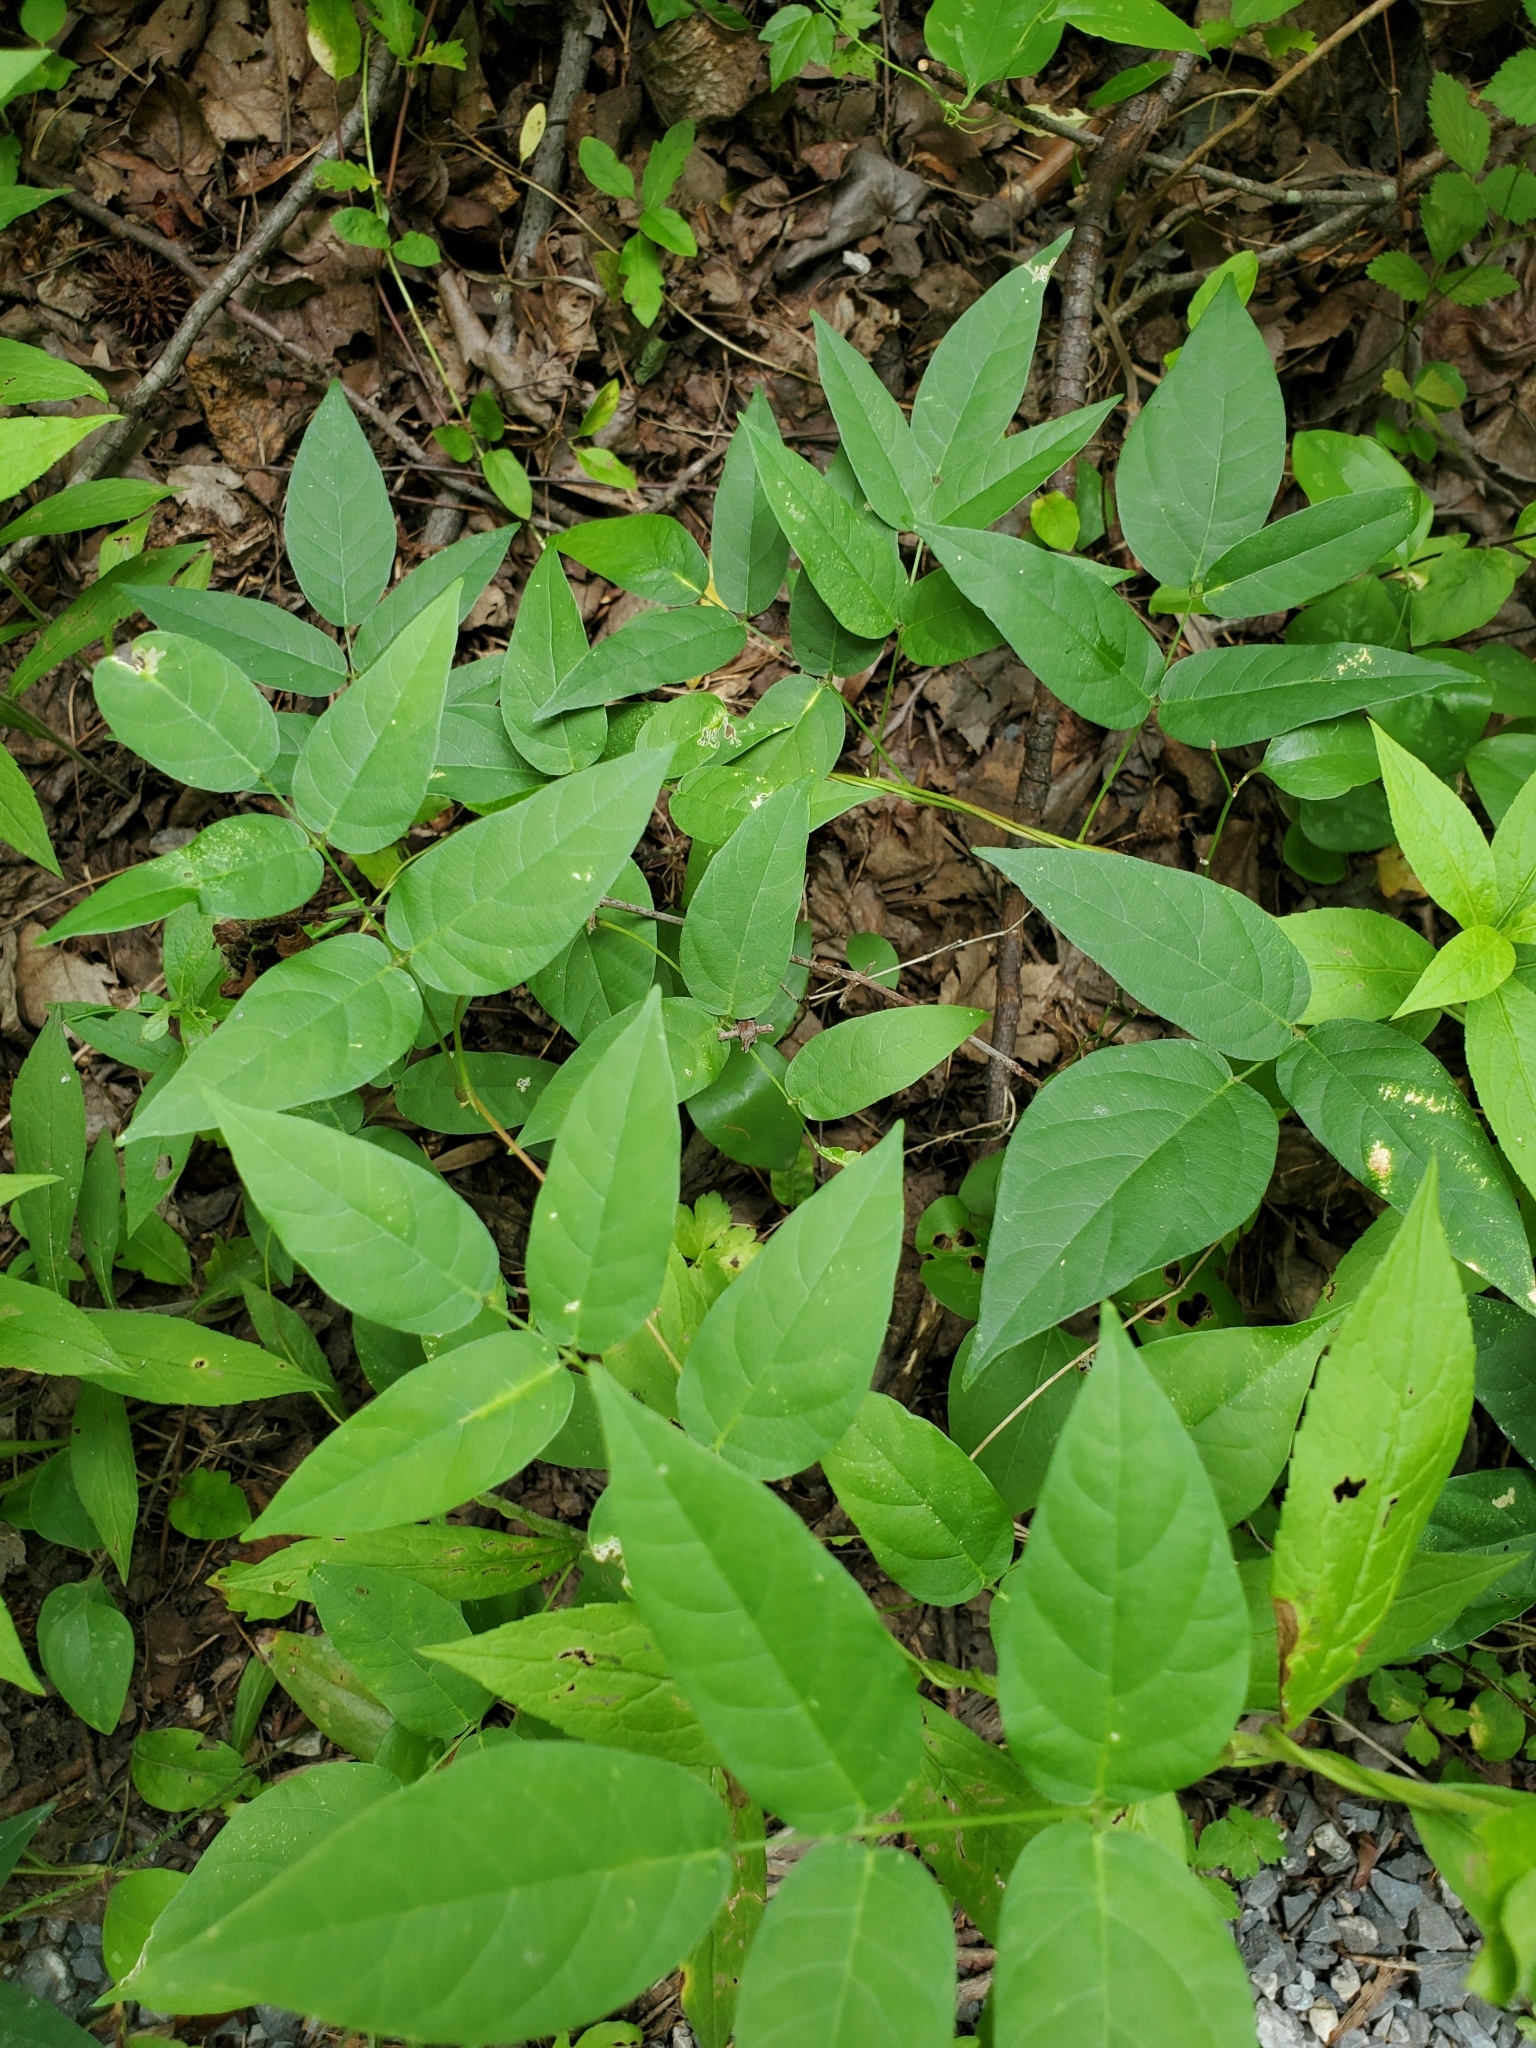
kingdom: Plantae
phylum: Tracheophyta
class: Magnoliopsida
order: Fabales
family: Fabaceae
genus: Apios
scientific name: Apios americana
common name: American potato-bean
